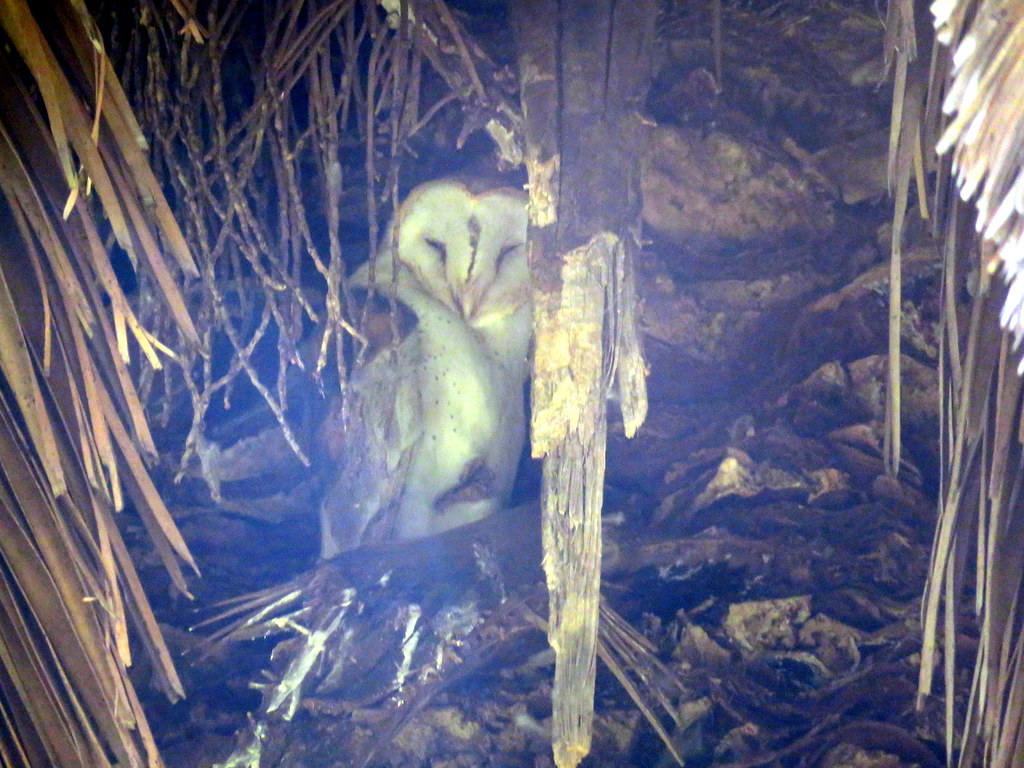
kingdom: Animalia
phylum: Chordata
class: Aves
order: Strigiformes
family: Tytonidae
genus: Tyto
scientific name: Tyto alba
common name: Barn owl
